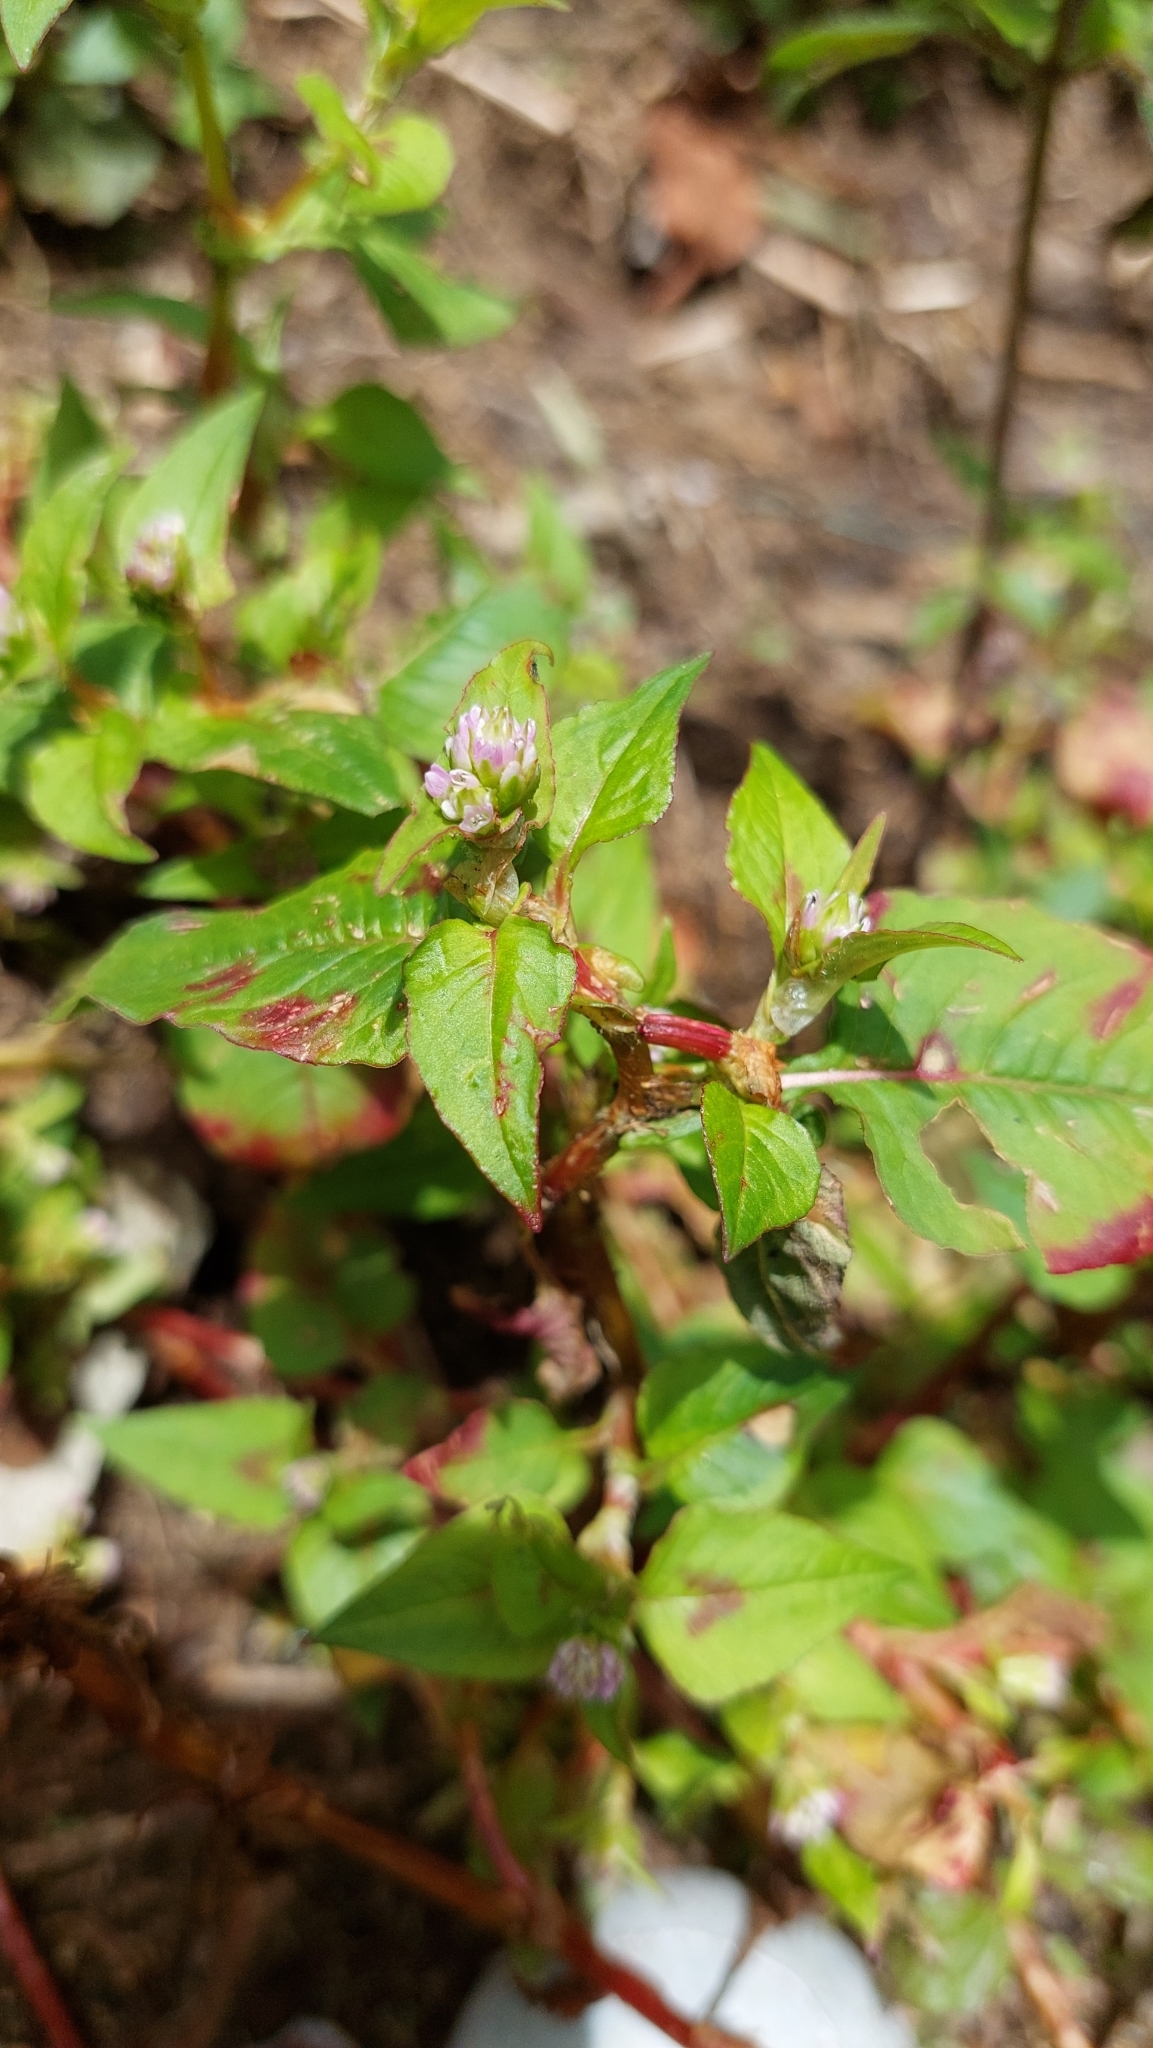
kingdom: Plantae
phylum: Tracheophyta
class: Magnoliopsida
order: Caryophyllales
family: Polygonaceae
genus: Persicaria
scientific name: Persicaria nepalensis
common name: Nepal persicaria
